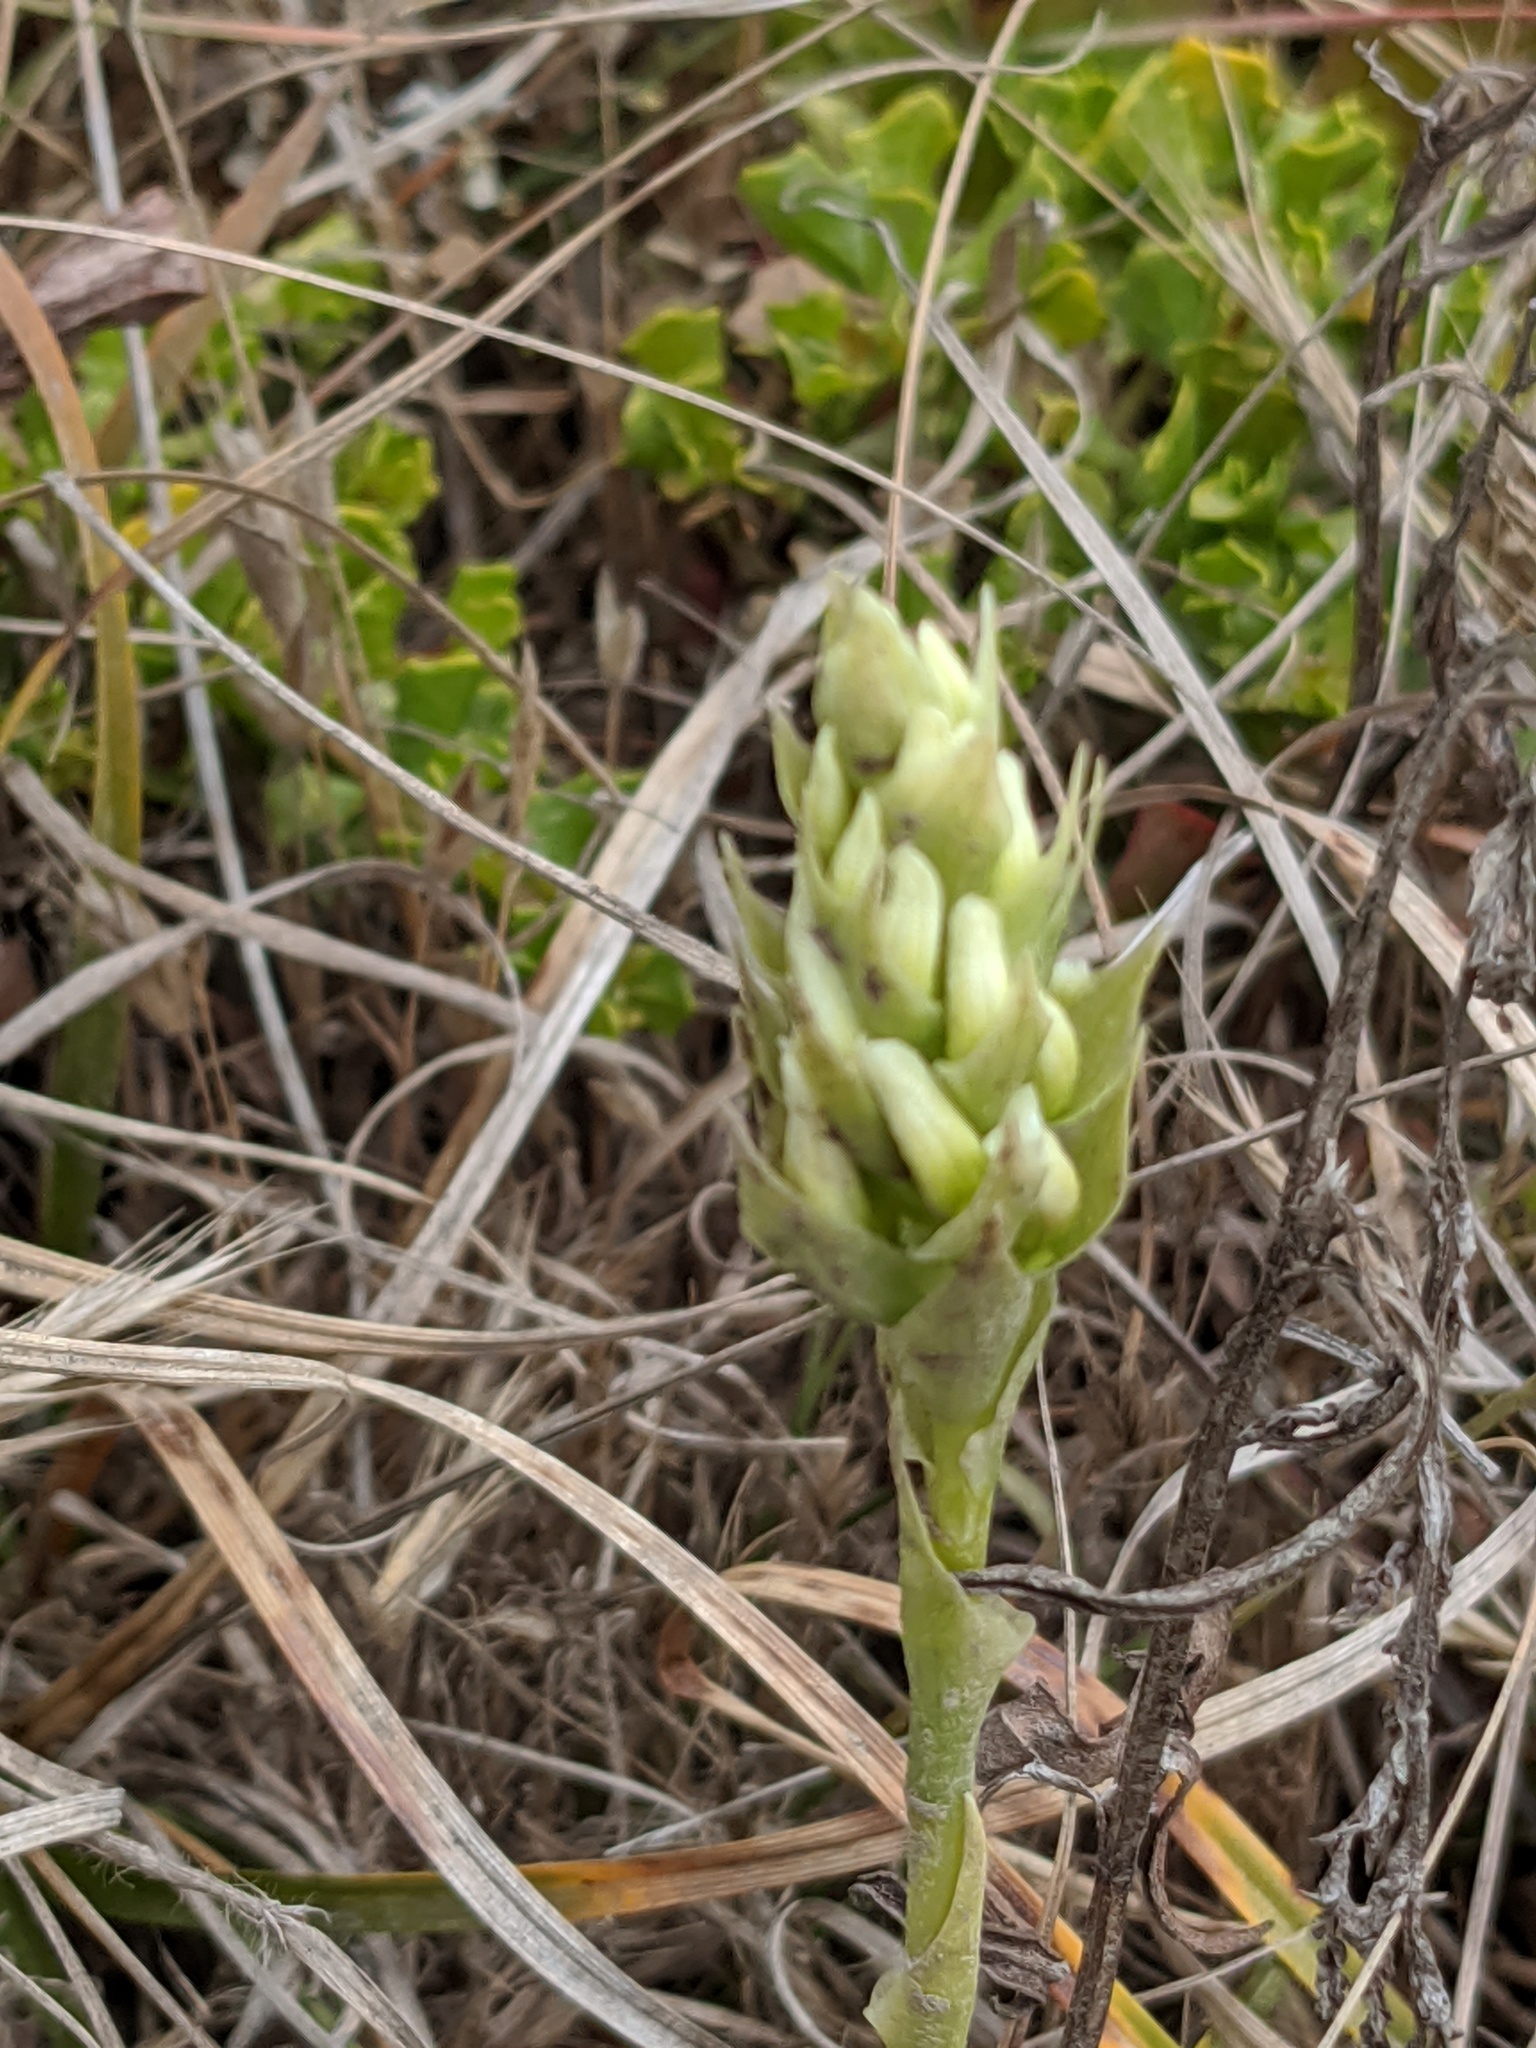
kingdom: Plantae
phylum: Tracheophyta
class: Liliopsida
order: Asparagales
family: Orchidaceae
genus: Spiranthes
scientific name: Spiranthes romanzoffiana
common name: Irish lady's-tresses
